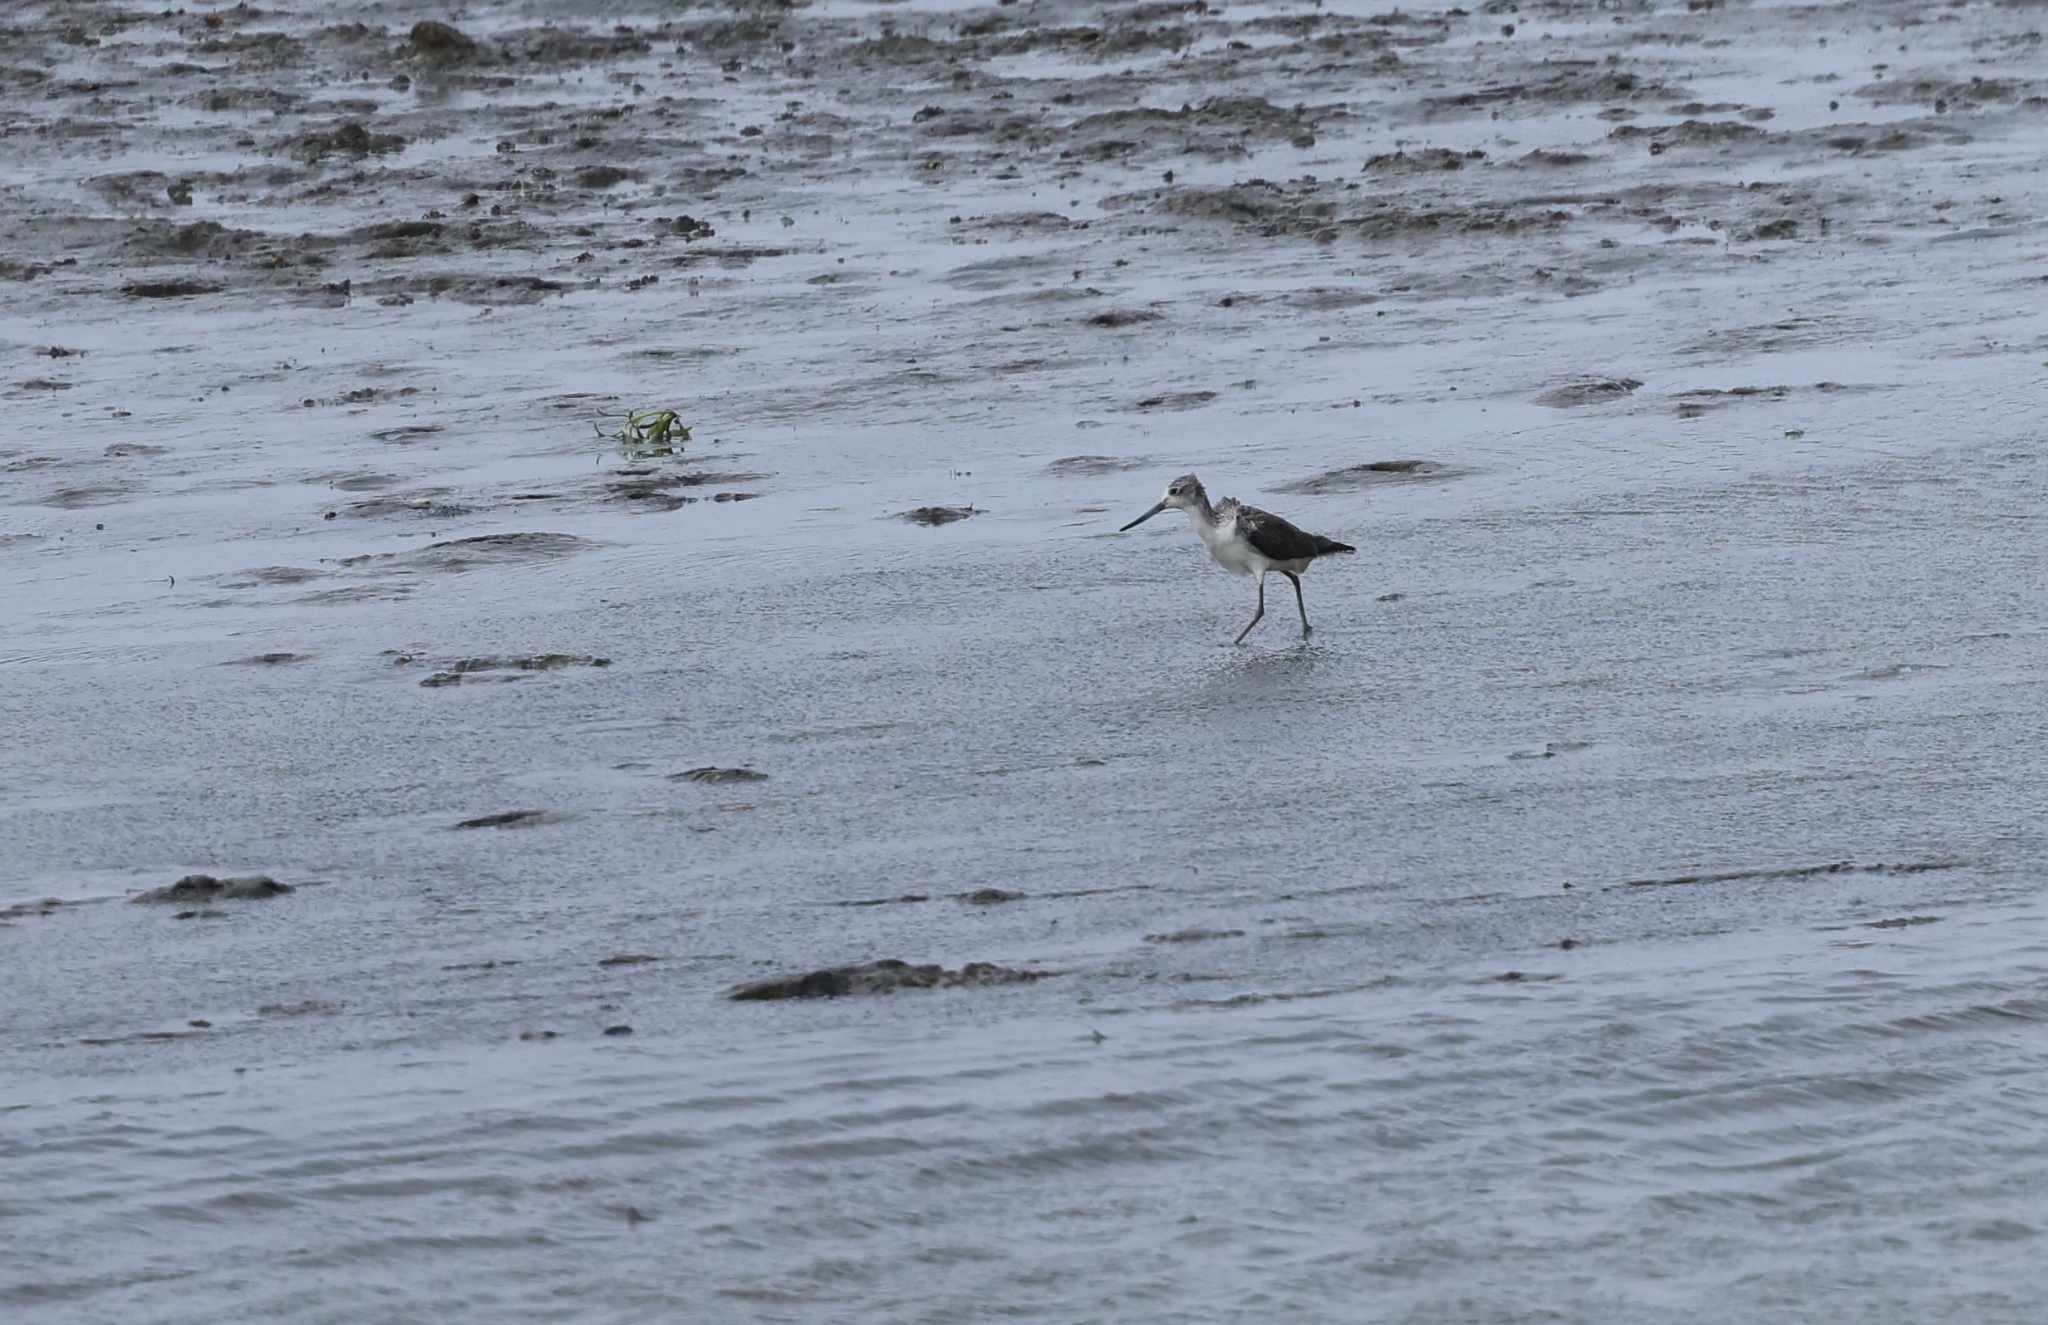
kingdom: Animalia
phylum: Chordata
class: Aves
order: Charadriiformes
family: Scolopacidae
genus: Tringa
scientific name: Tringa nebularia
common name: Common greenshank
